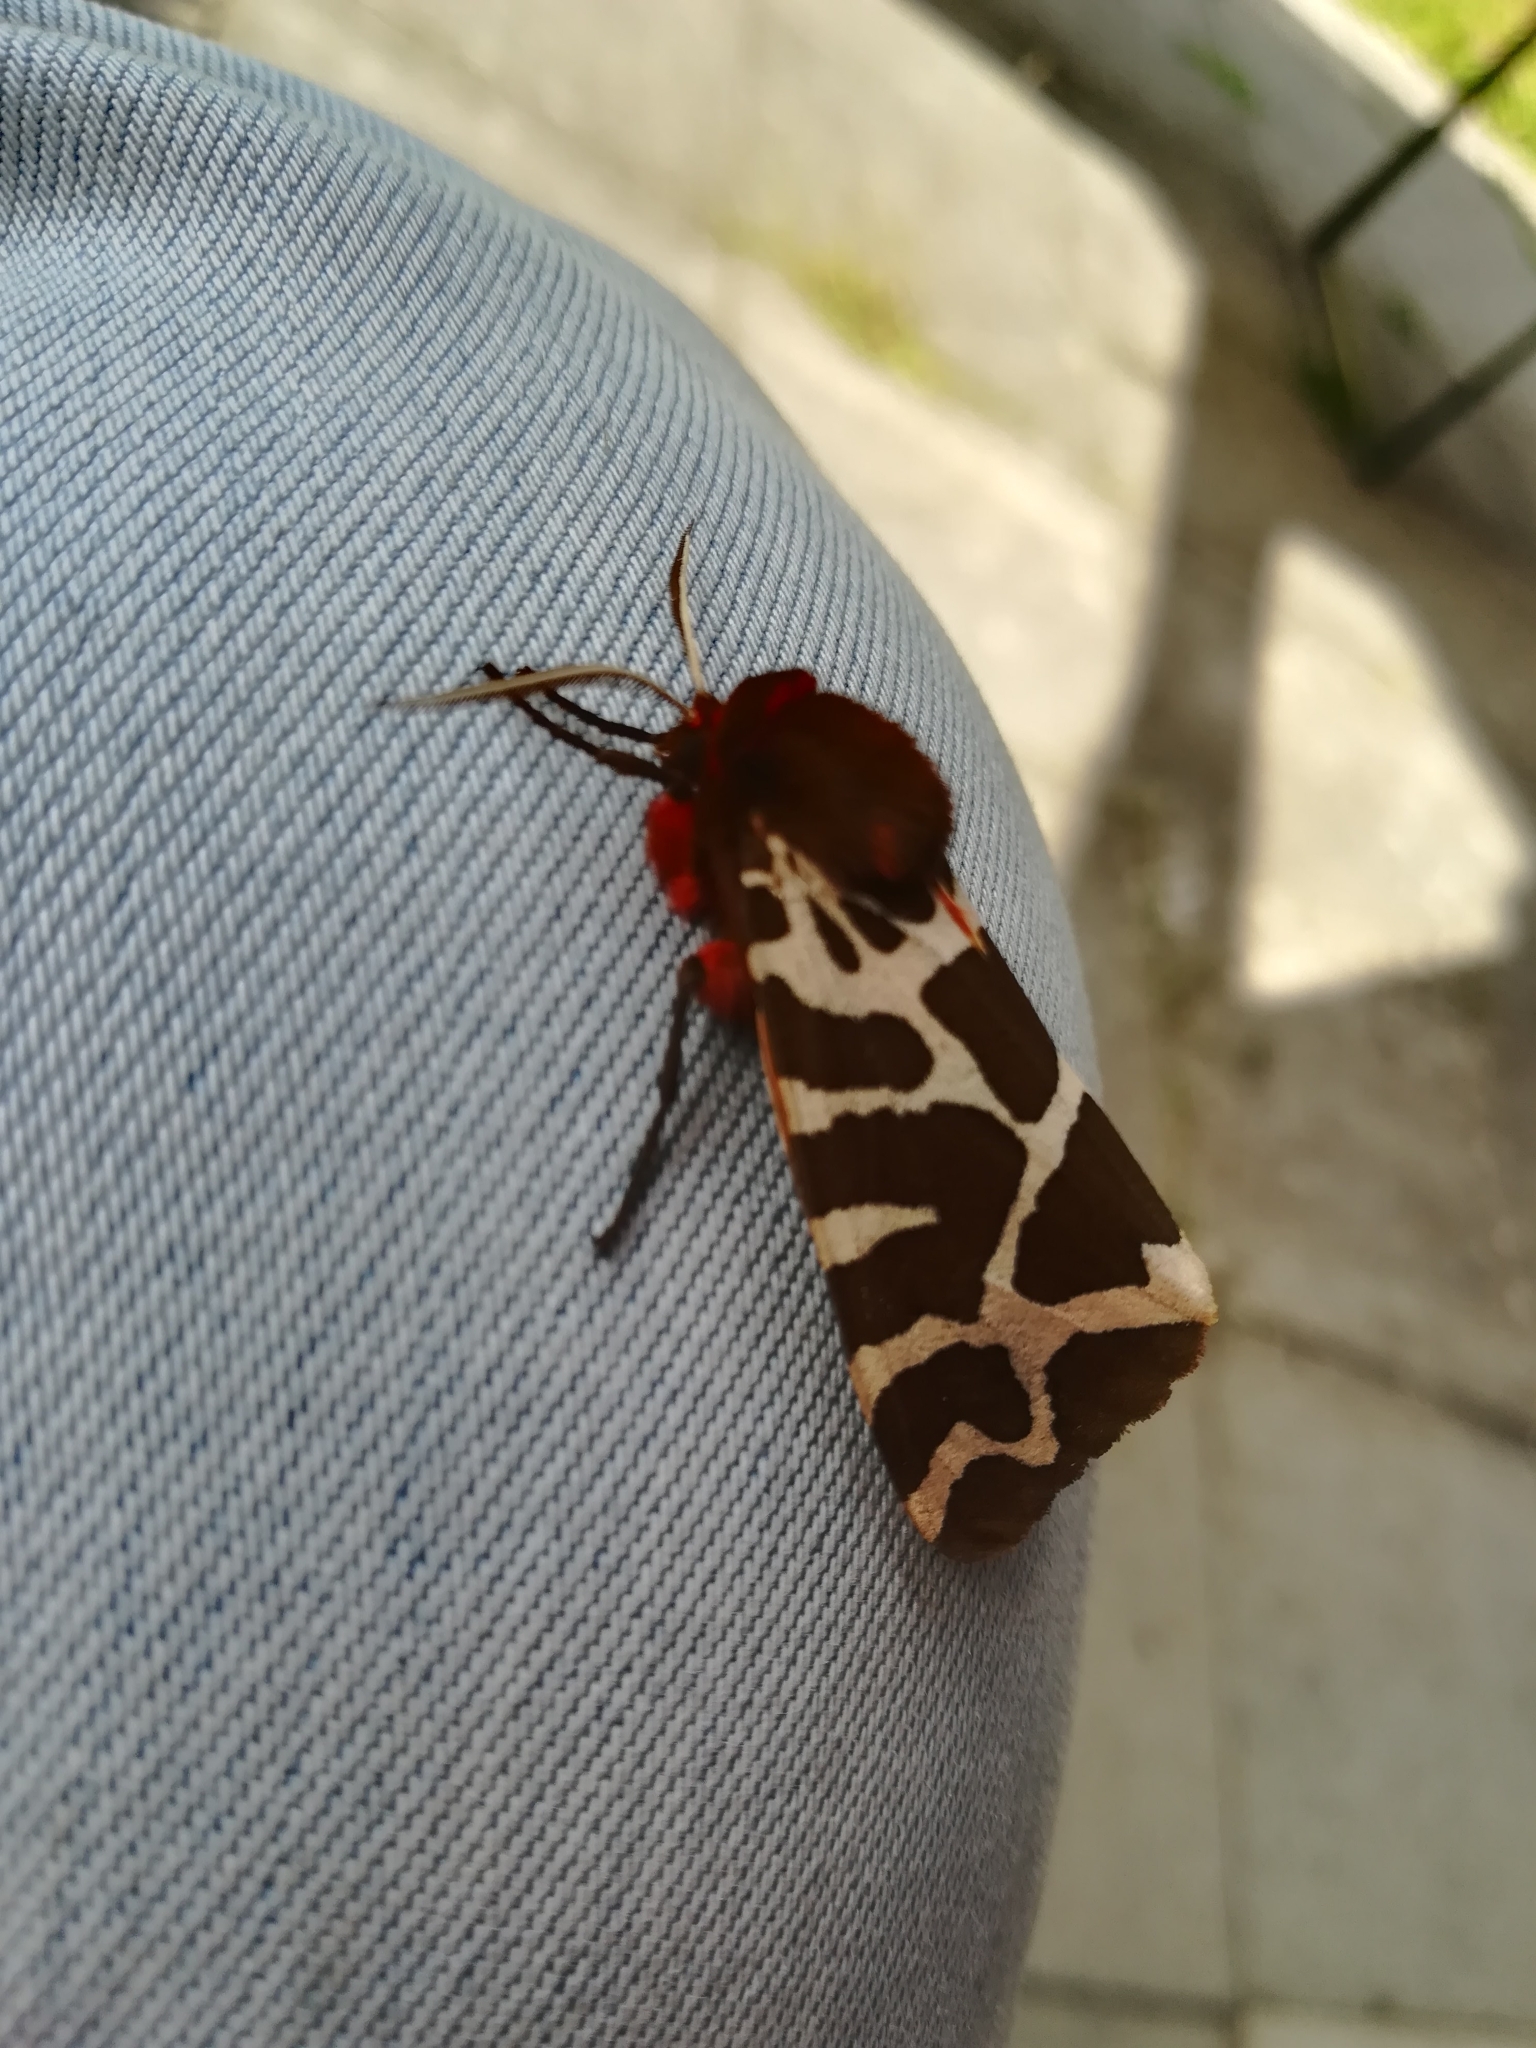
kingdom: Animalia
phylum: Arthropoda
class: Insecta
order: Lepidoptera
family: Erebidae
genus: Arctia
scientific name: Arctia caja
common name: Garden tiger
